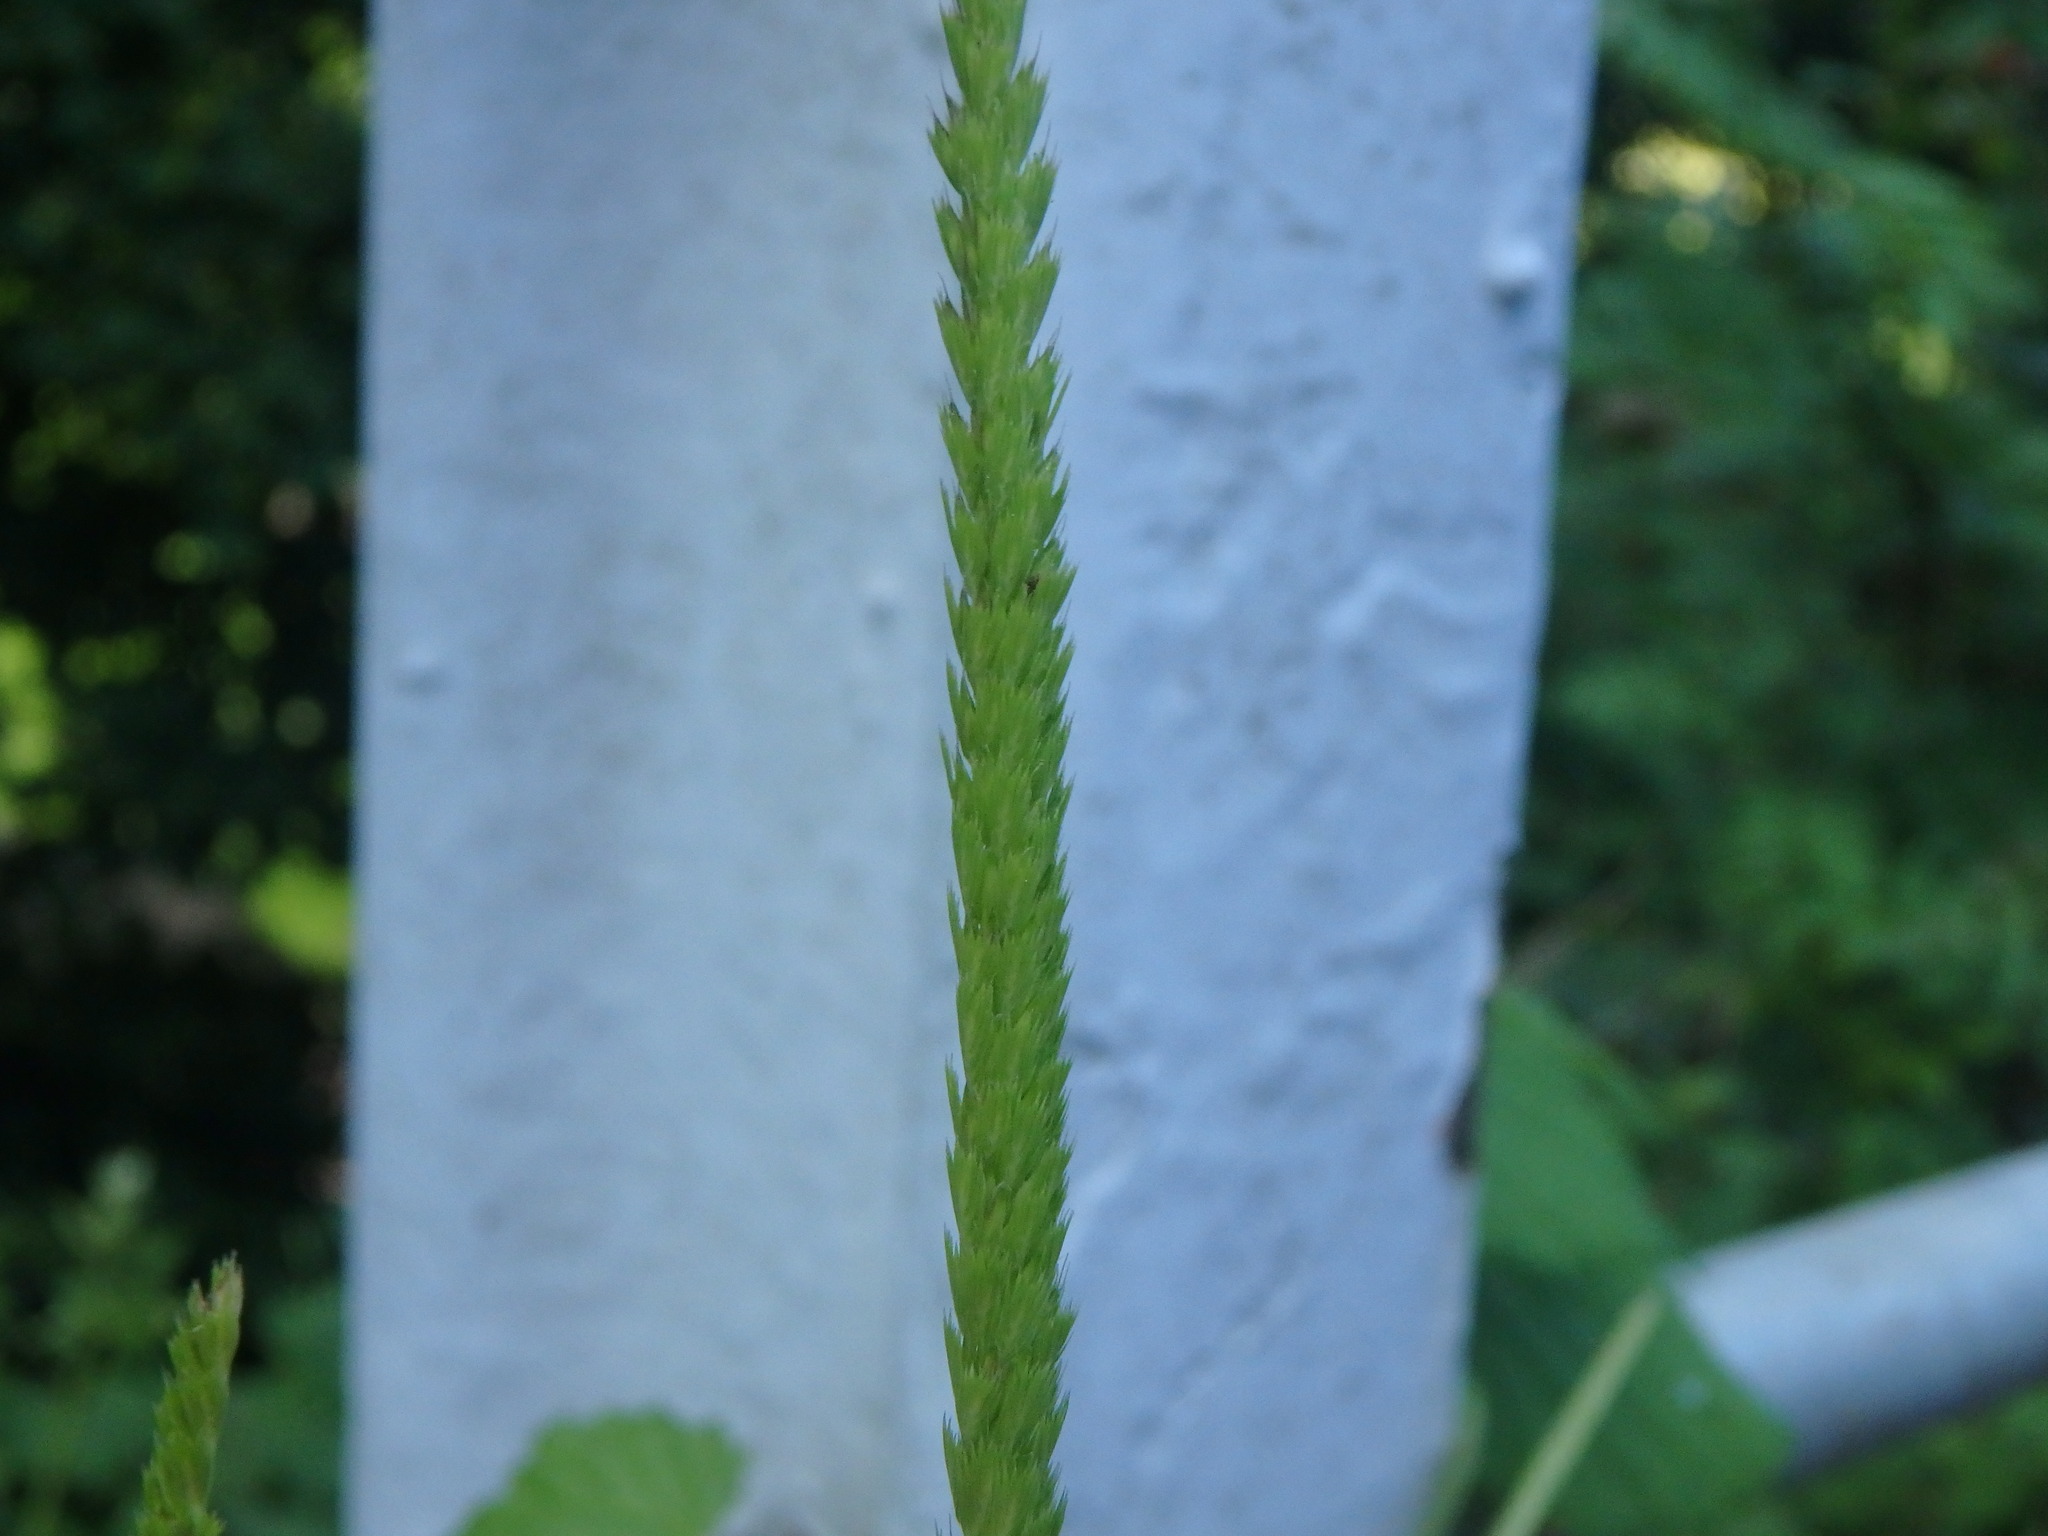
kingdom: Plantae
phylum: Tracheophyta
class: Liliopsida
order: Poales
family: Poaceae
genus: Cynosurus
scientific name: Cynosurus cristatus
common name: Crested dog's-tail
